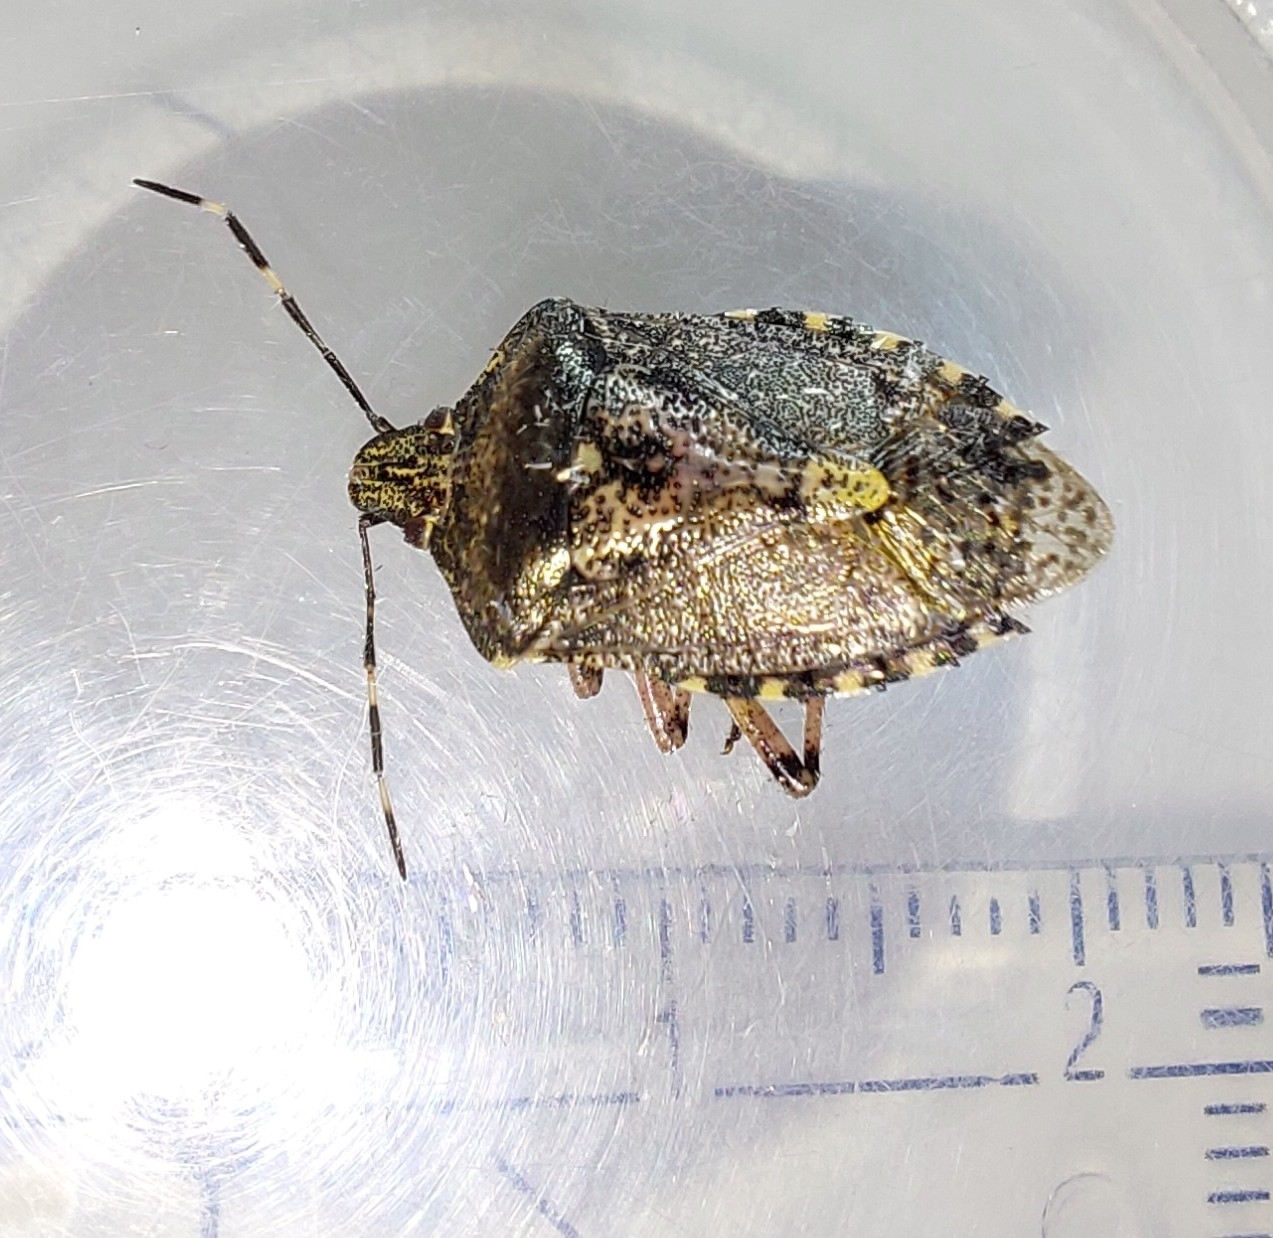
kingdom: Animalia
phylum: Arthropoda
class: Insecta
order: Hemiptera
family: Pentatomidae
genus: Rhaphigaster
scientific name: Rhaphigaster nebulosa
